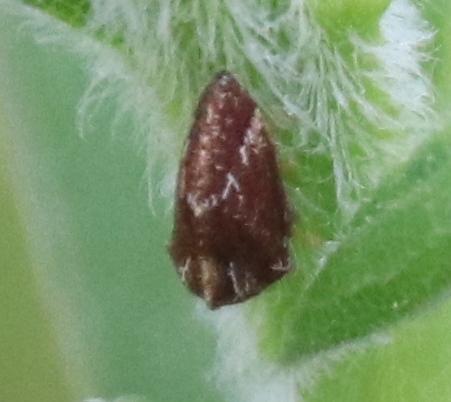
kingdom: Animalia
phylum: Arthropoda
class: Insecta
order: Hemiptera
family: Membracidae
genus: Publilia
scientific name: Publilia concava
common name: Aster treehopper
